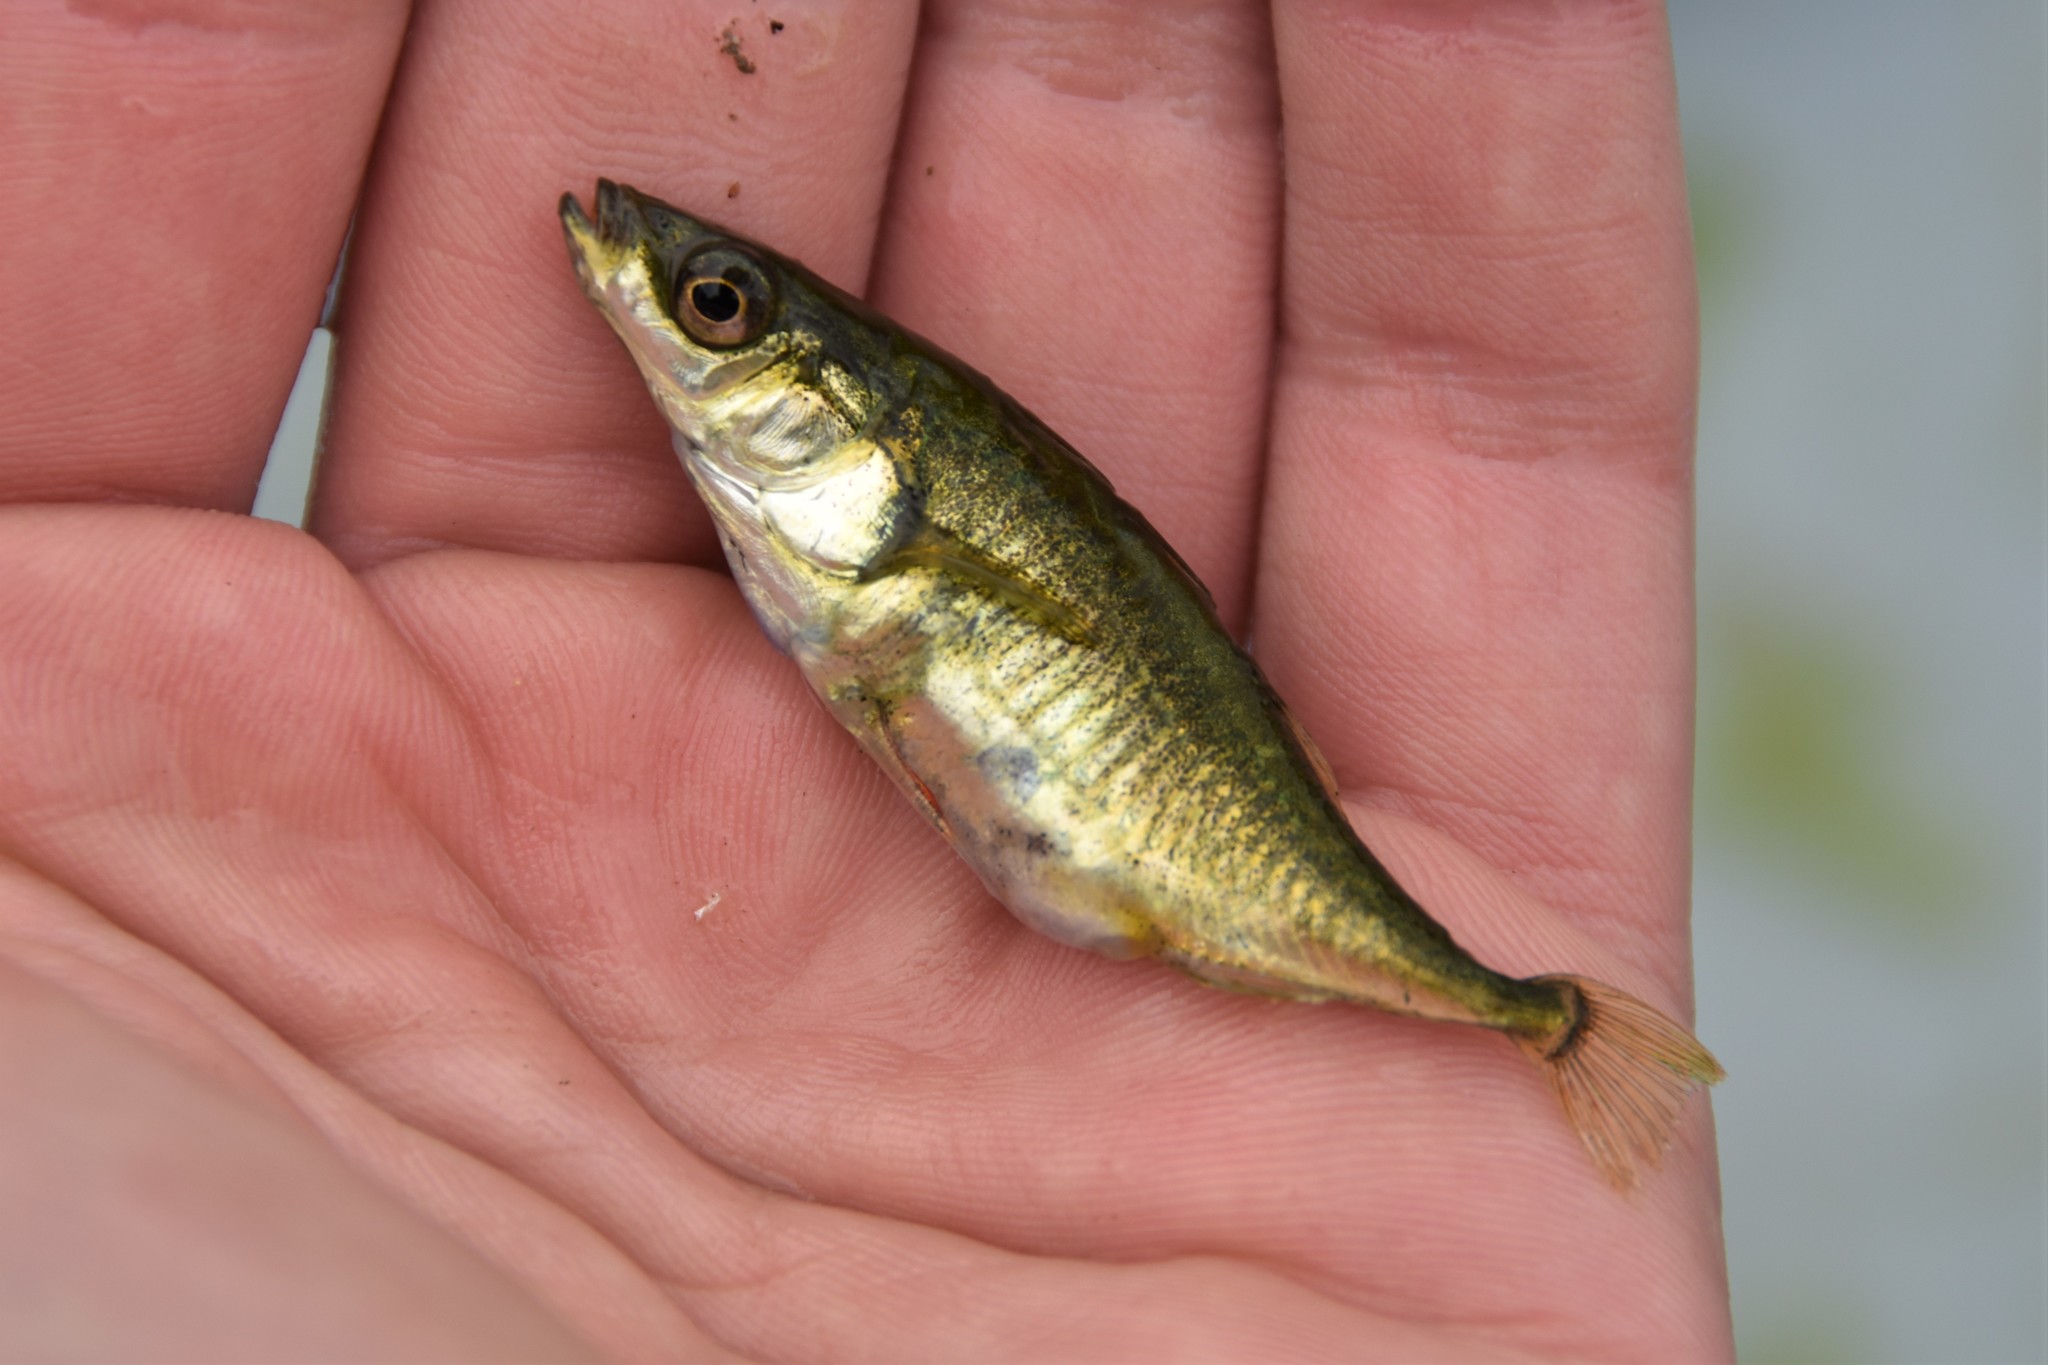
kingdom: Animalia
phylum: Chordata
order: Gasterosteiformes
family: Gasterosteidae
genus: Gasterosteus
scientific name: Gasterosteus aculeatus
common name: Three-spined stickleback
